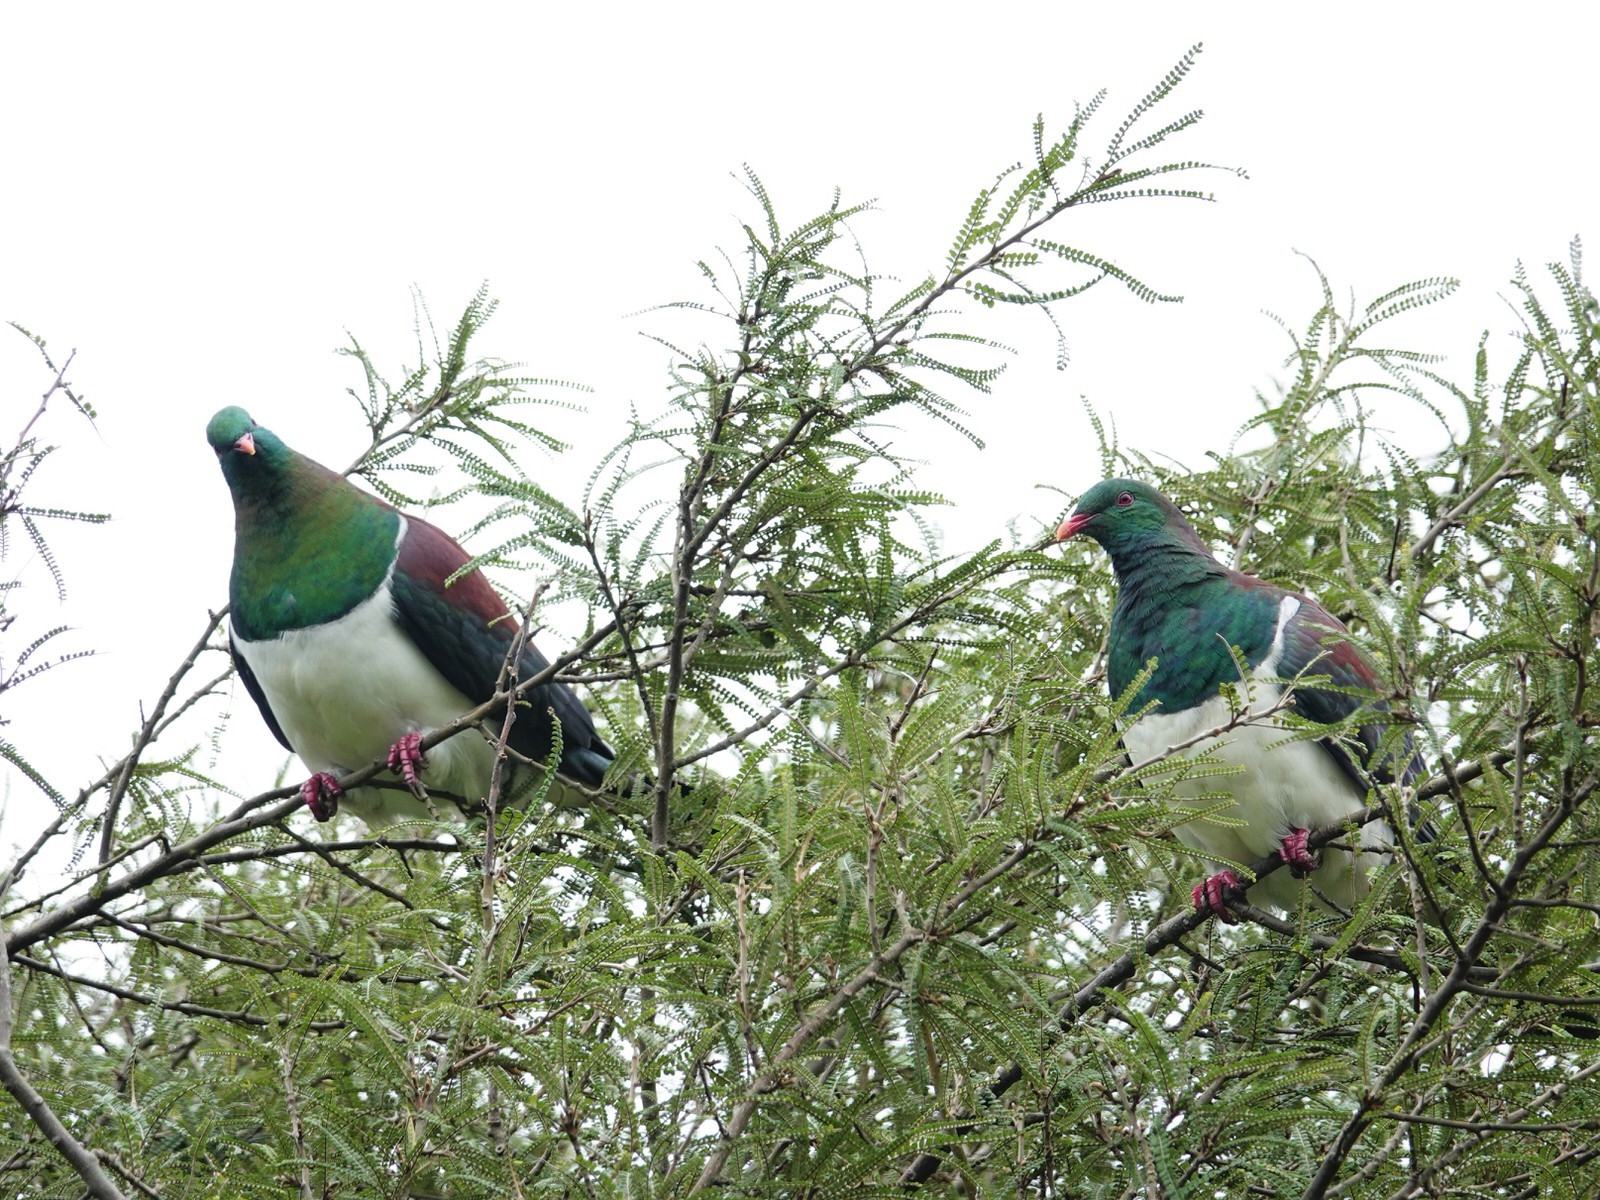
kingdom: Animalia
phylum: Chordata
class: Aves
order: Columbiformes
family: Columbidae
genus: Hemiphaga
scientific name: Hemiphaga novaeseelandiae
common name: New zealand pigeon
